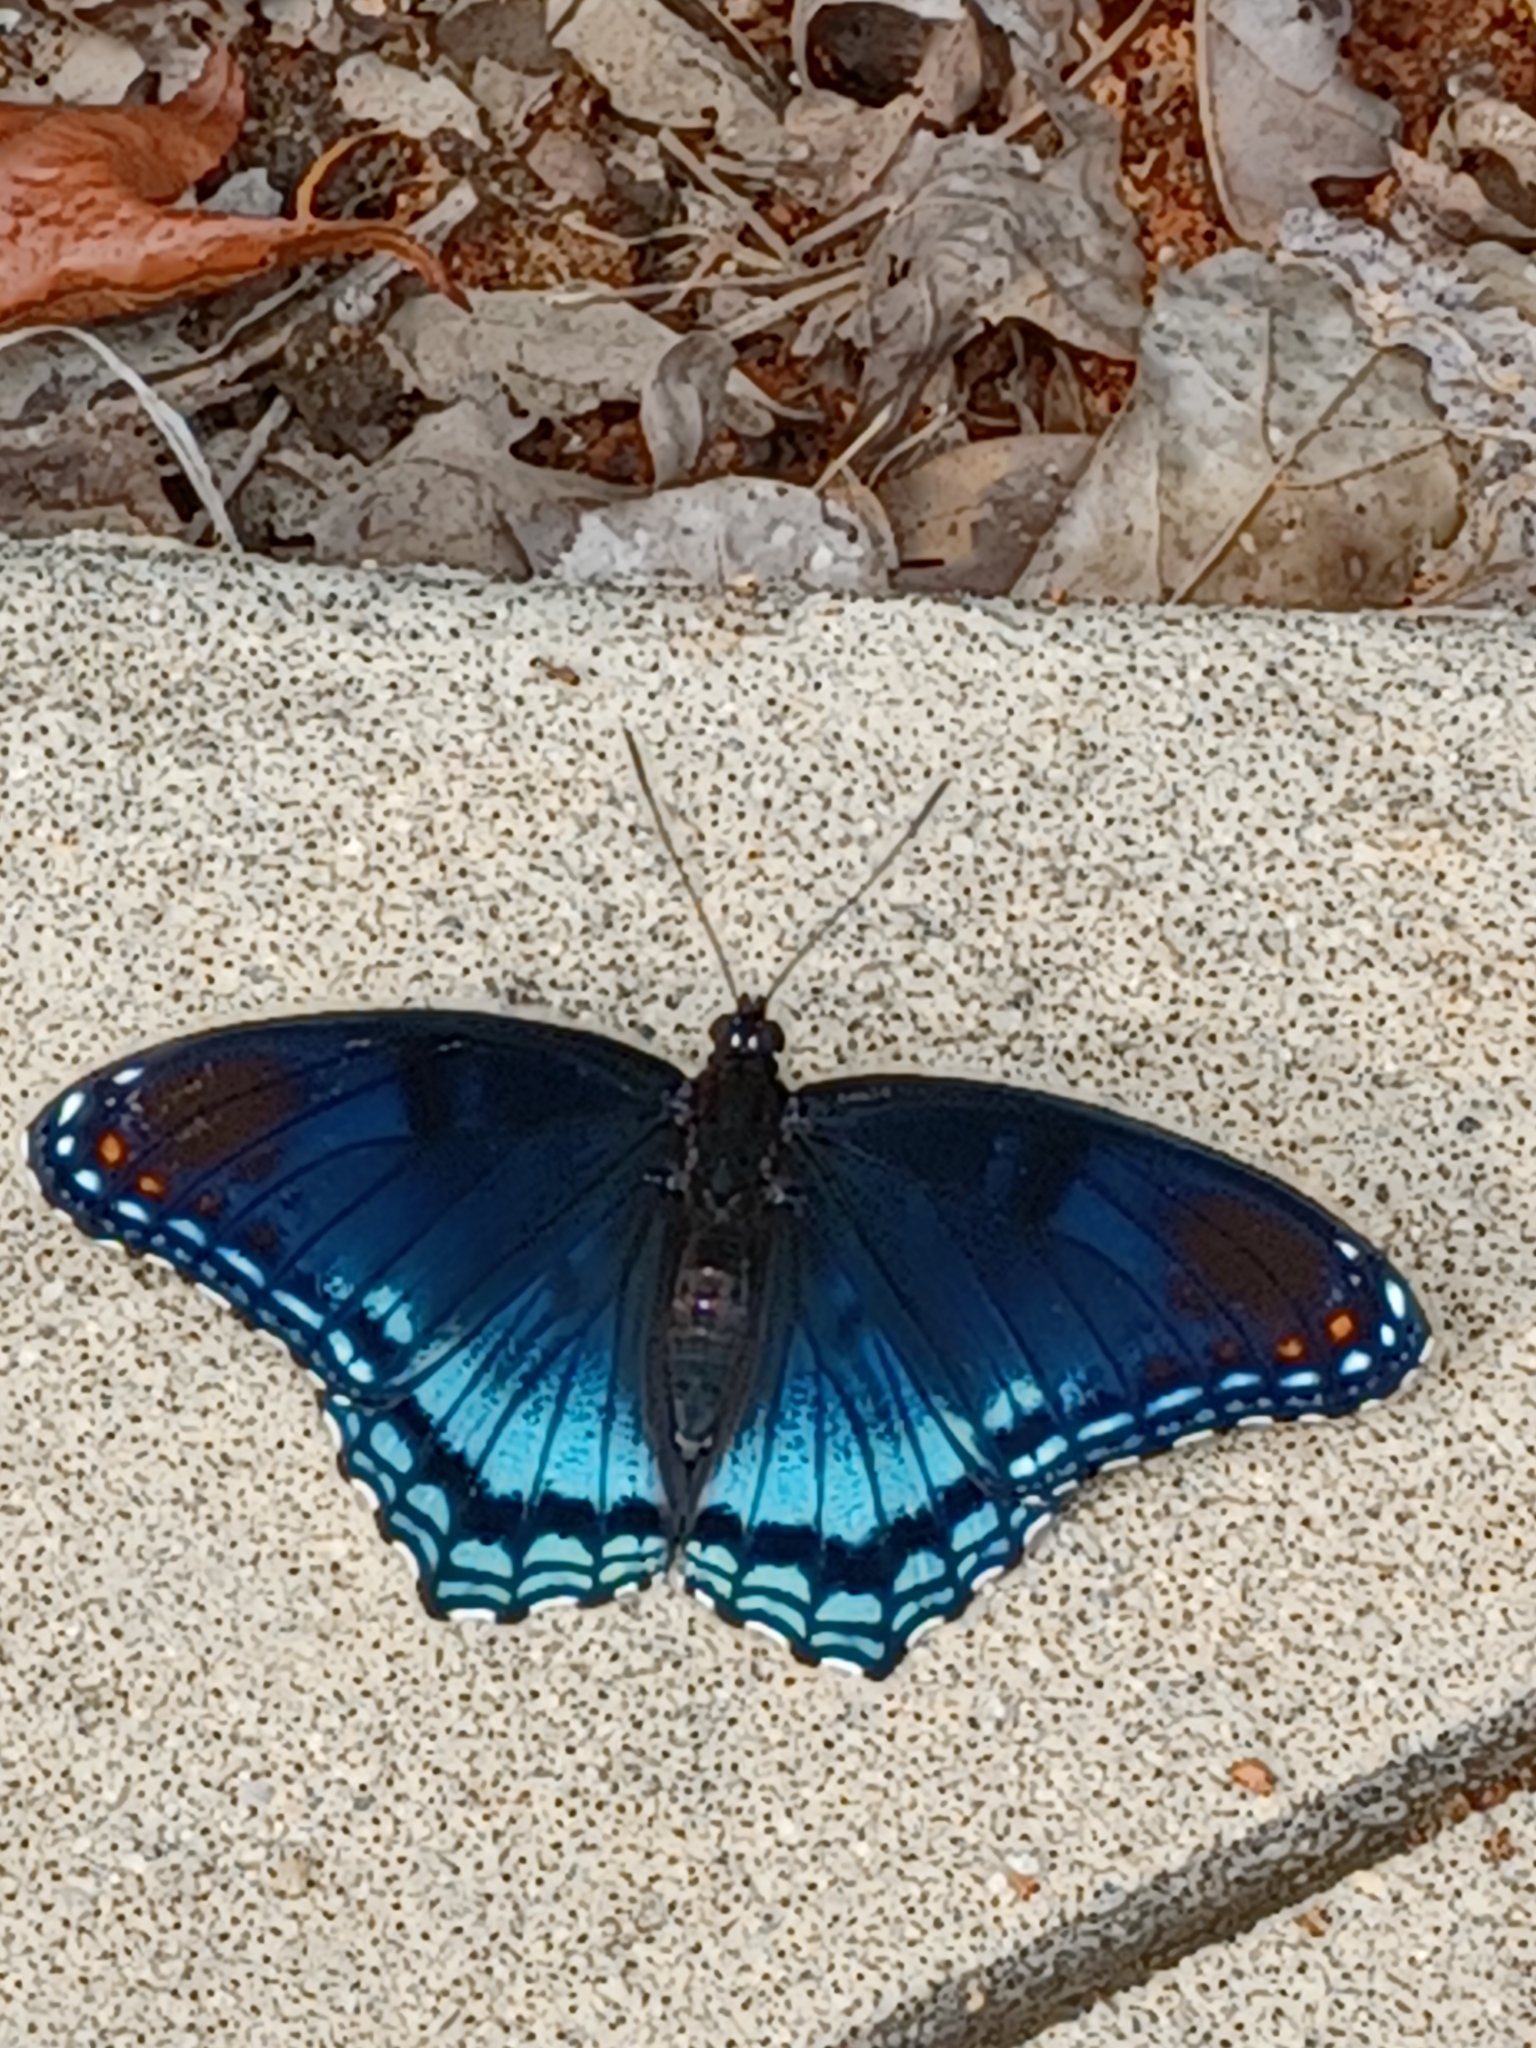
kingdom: Animalia
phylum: Arthropoda
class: Insecta
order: Lepidoptera
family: Nymphalidae
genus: Limenitis
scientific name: Limenitis astyanax
